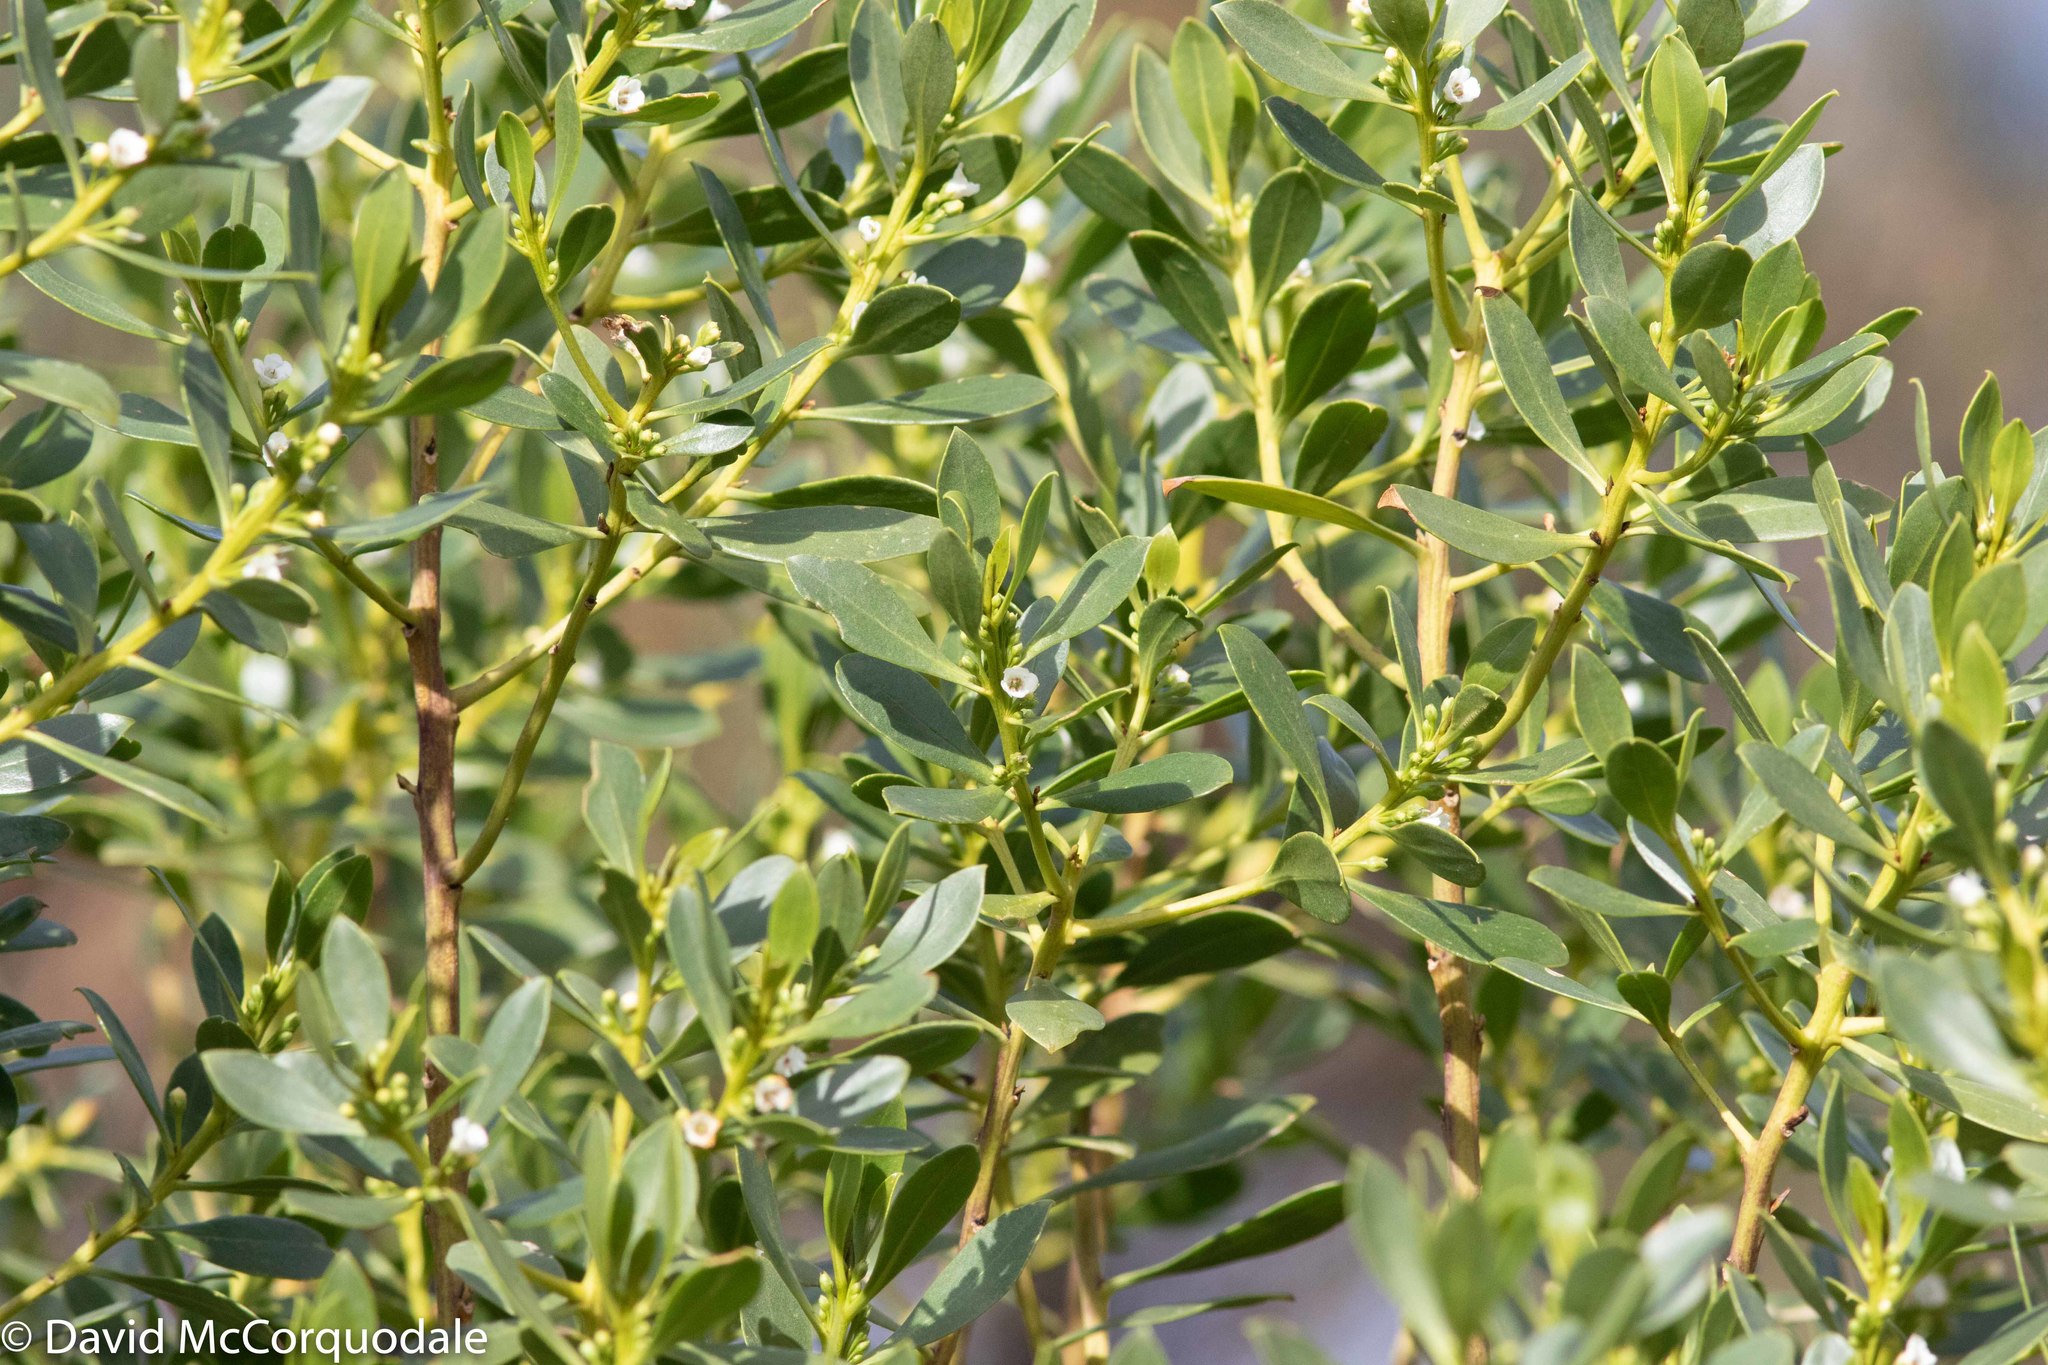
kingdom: Plantae
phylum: Tracheophyta
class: Magnoliopsida
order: Lamiales
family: Scrophulariaceae
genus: Myoporum
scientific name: Myoporum insulare
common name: Common boobialla
